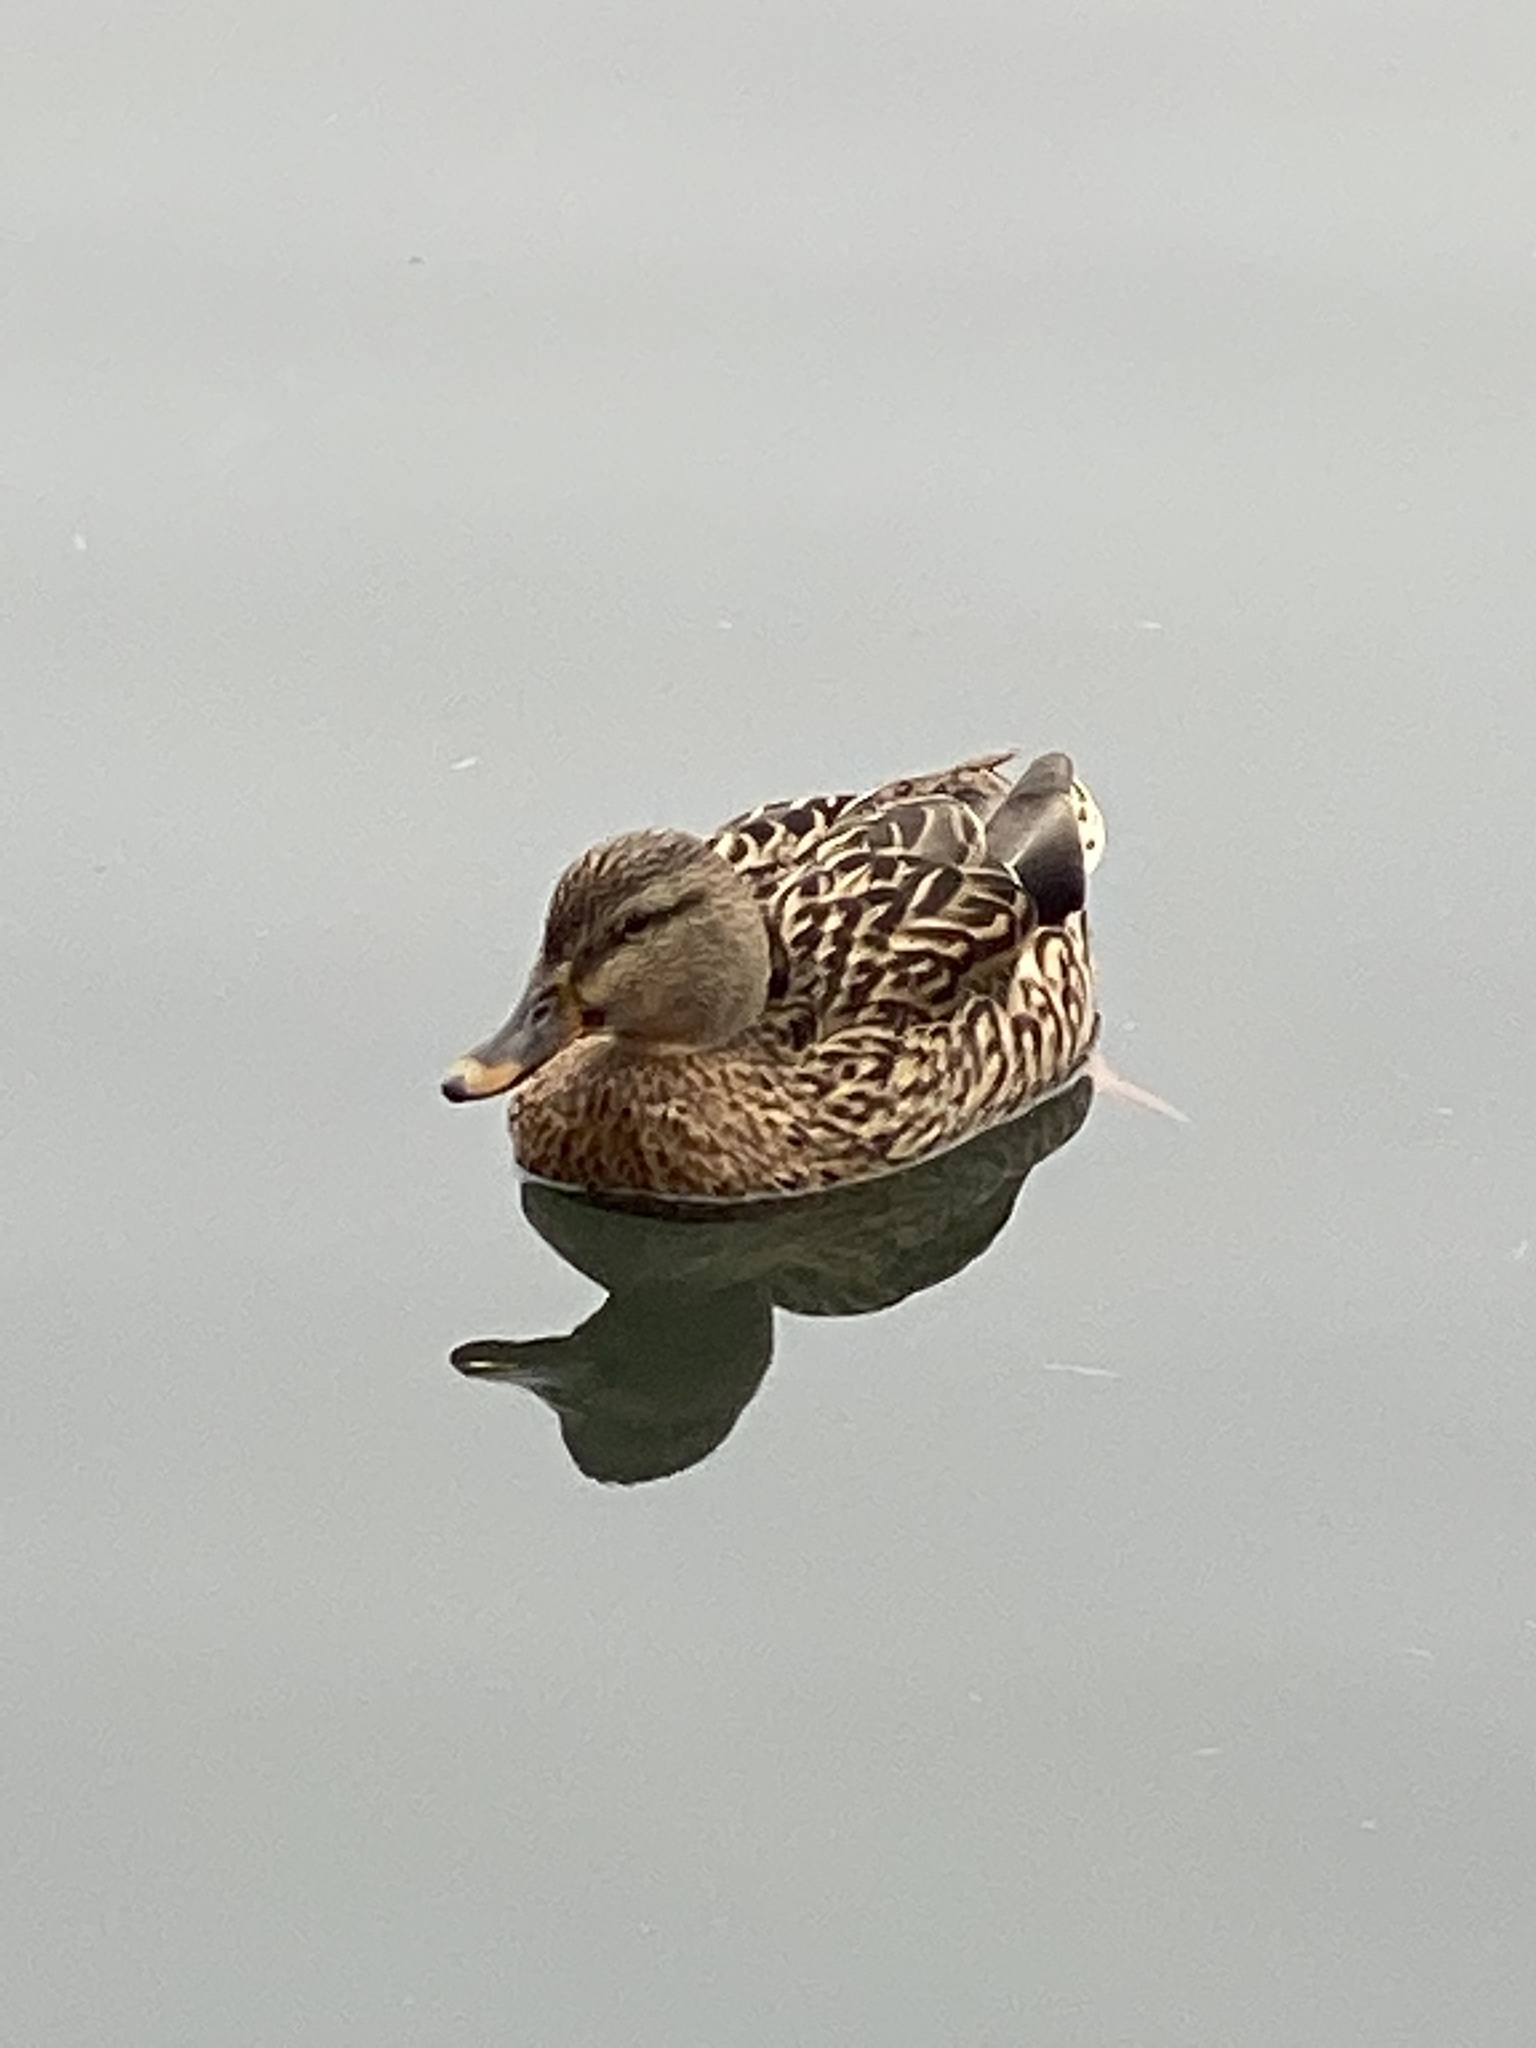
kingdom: Animalia
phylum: Chordata
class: Aves
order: Anseriformes
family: Anatidae
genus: Anas
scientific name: Anas platyrhynchos
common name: Mallard
